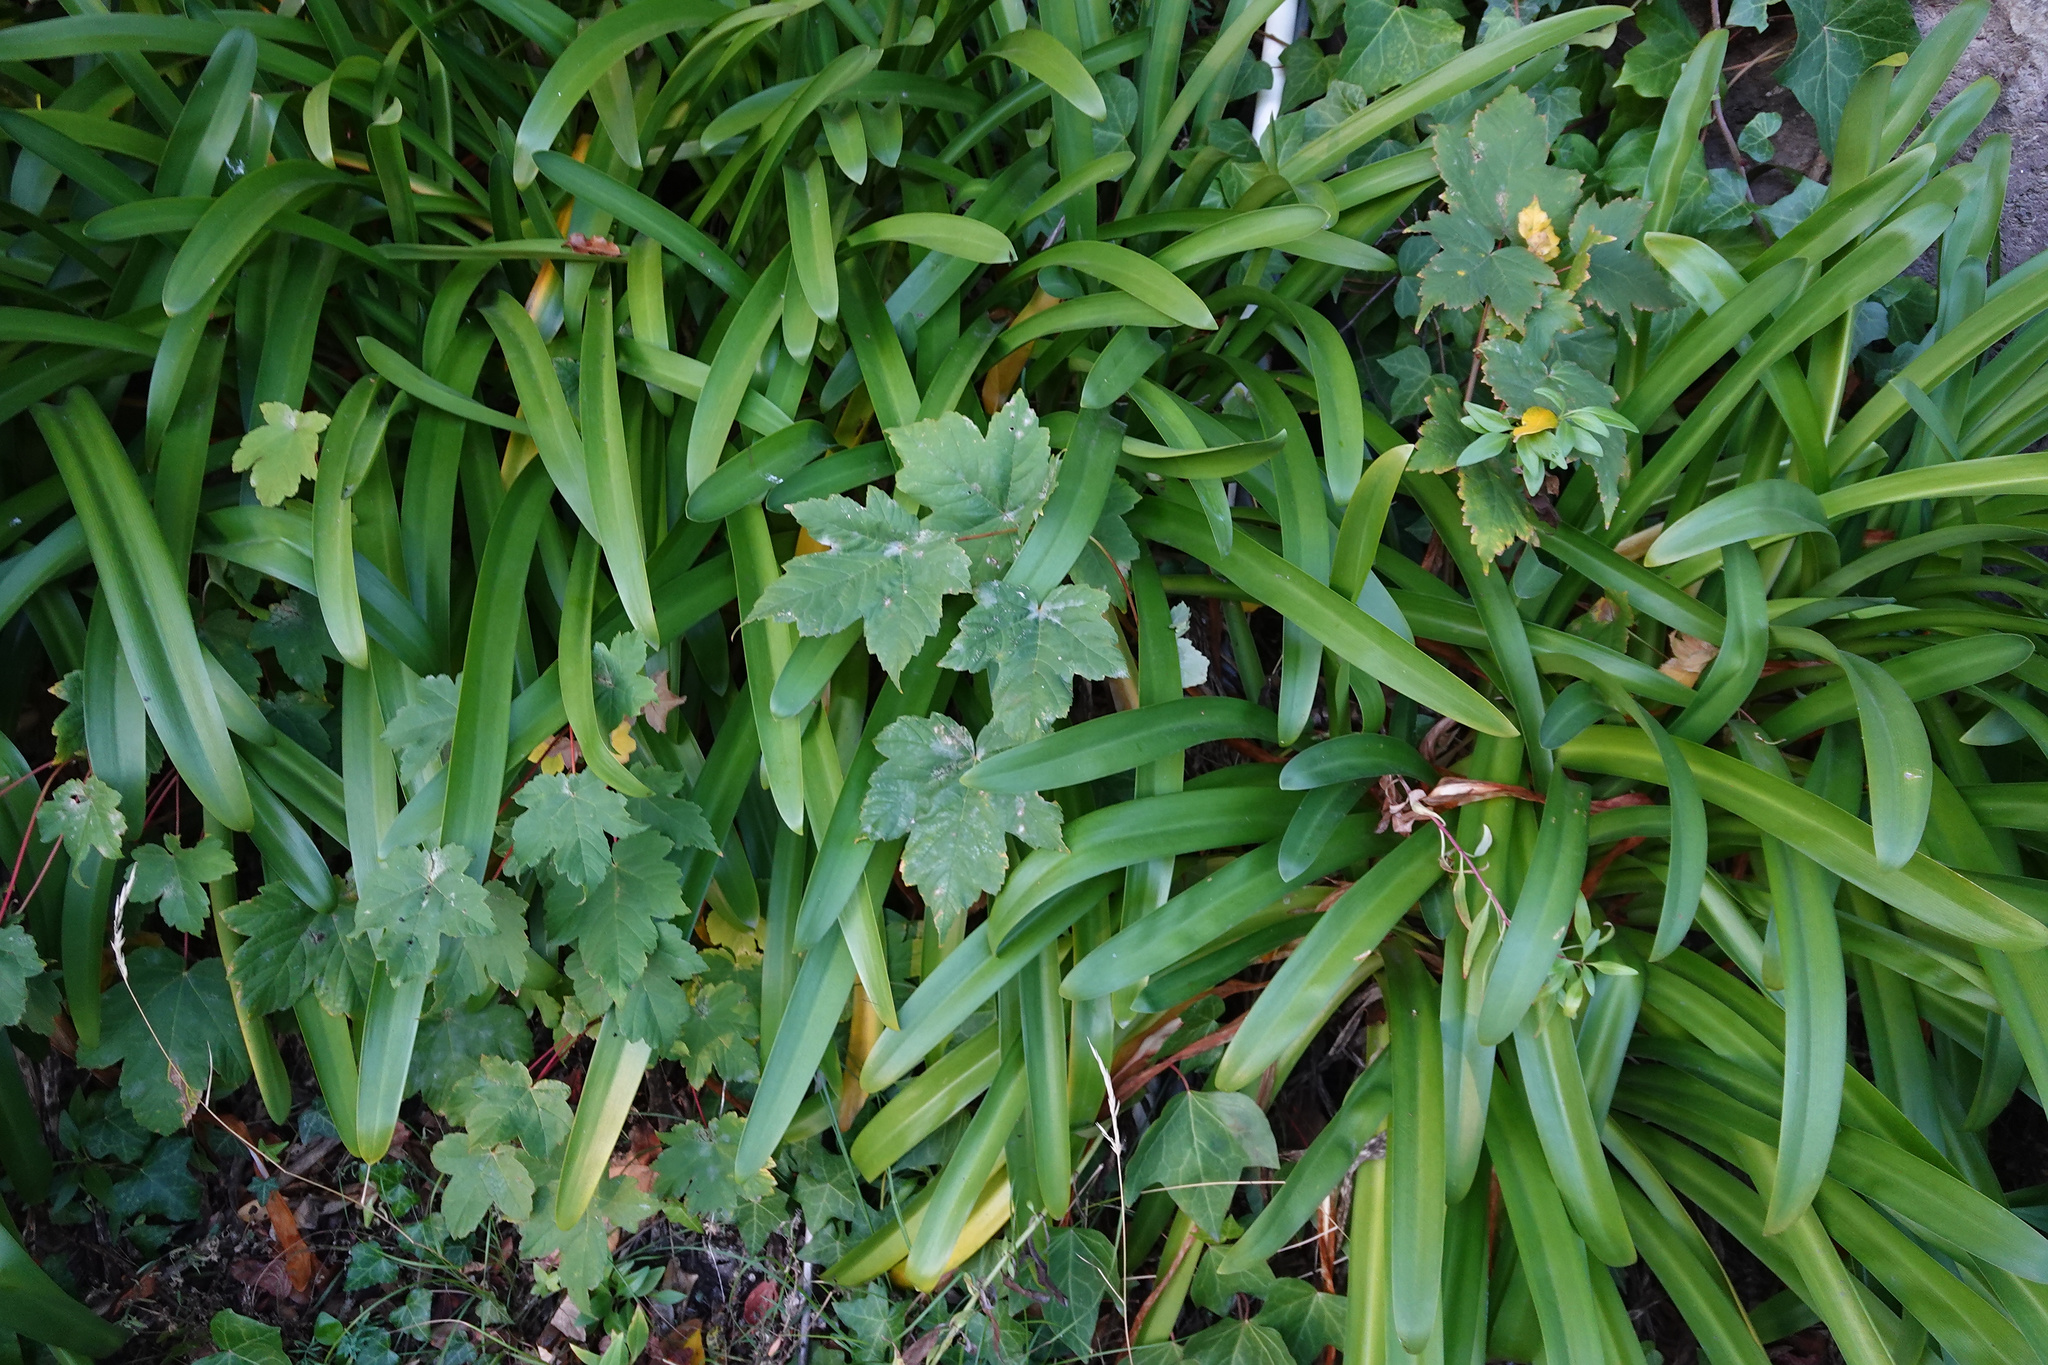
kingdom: Plantae
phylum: Tracheophyta
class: Magnoliopsida
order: Sapindales
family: Sapindaceae
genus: Acer
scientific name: Acer pseudoplatanus
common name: Sycamore
